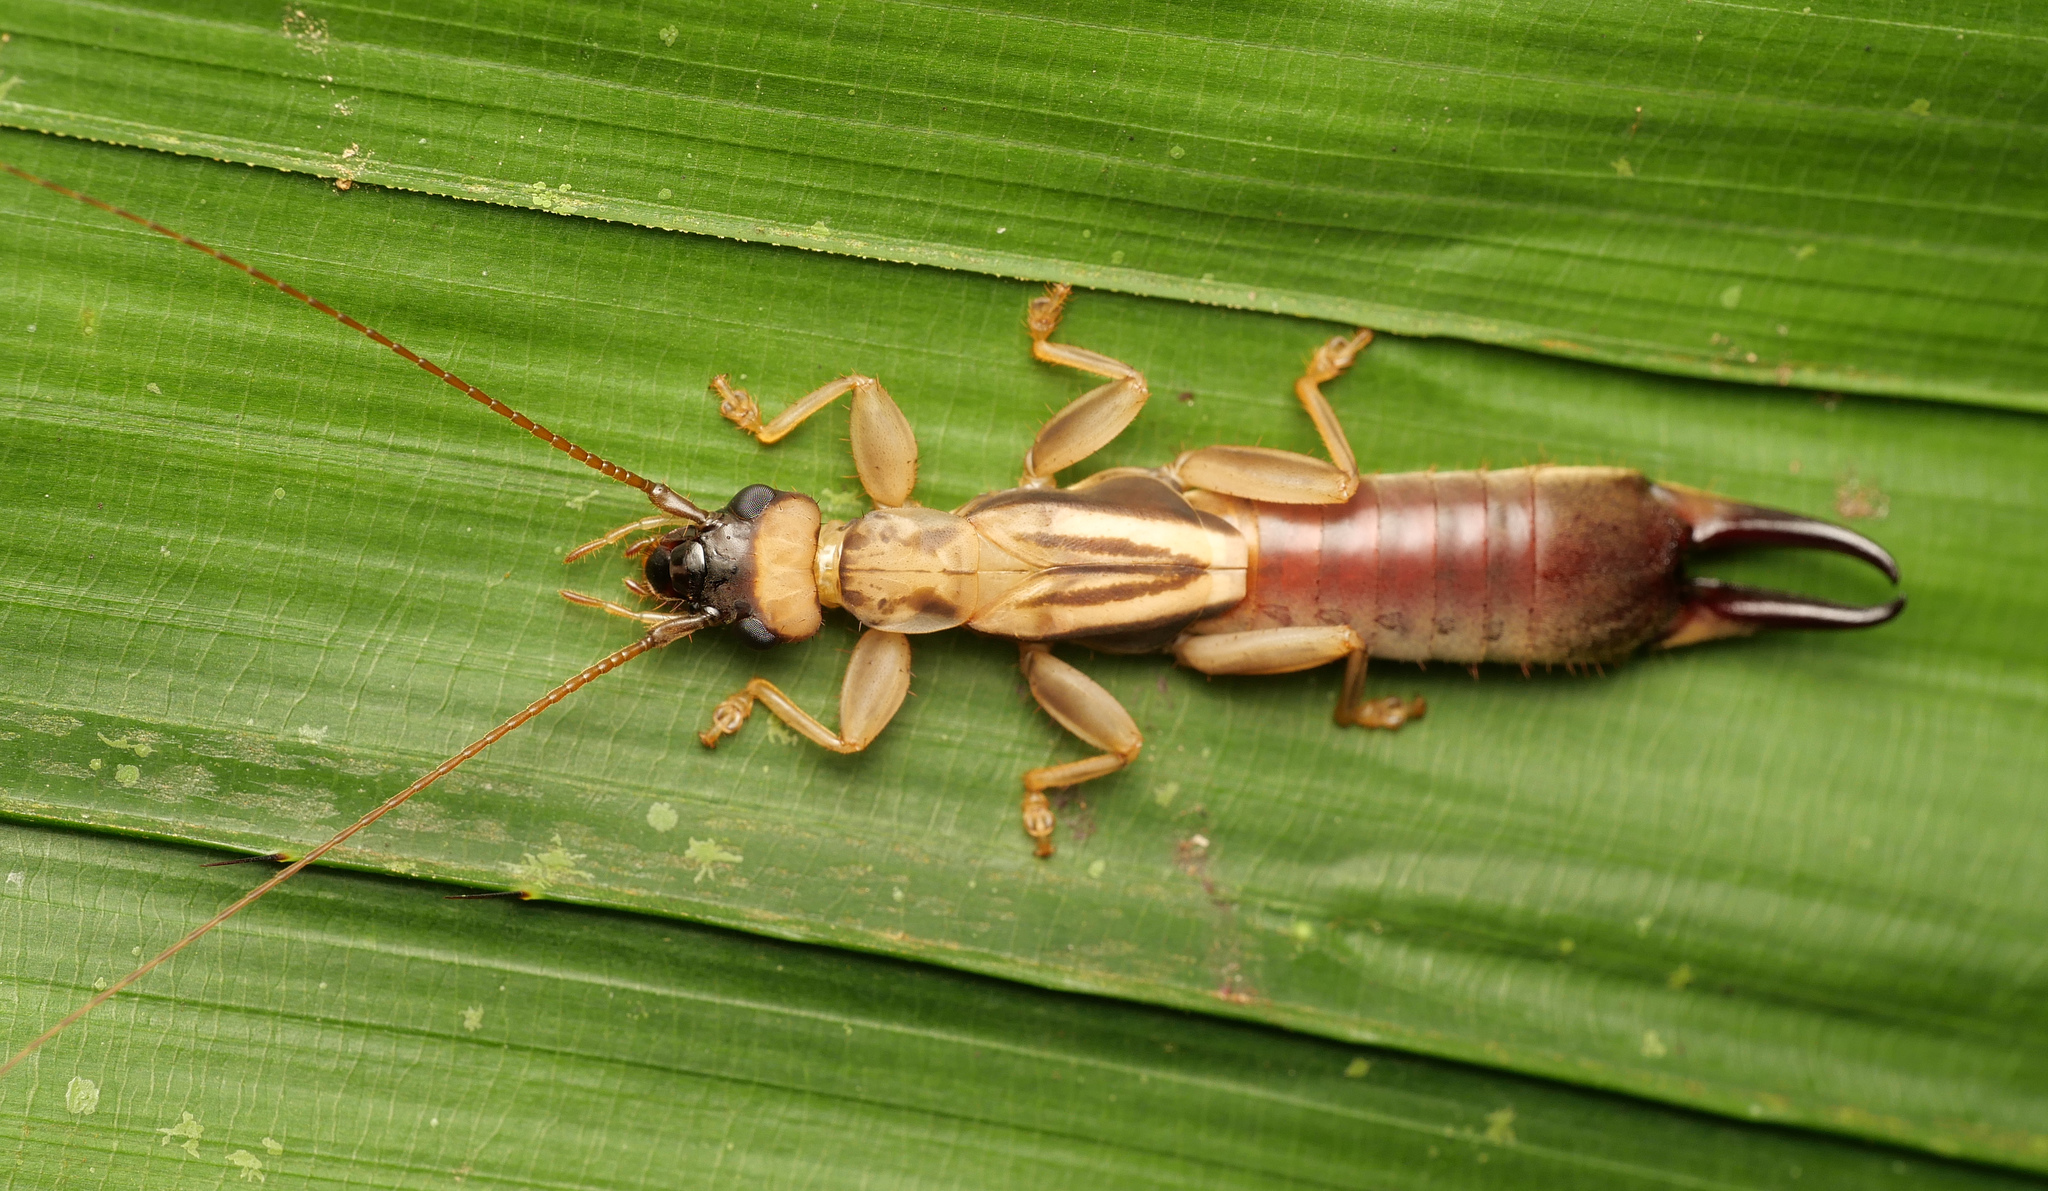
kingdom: Animalia
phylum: Arthropoda
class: Insecta
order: Dermaptera
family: Pygidicranidae
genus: Tagalina
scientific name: Tagalina papua
